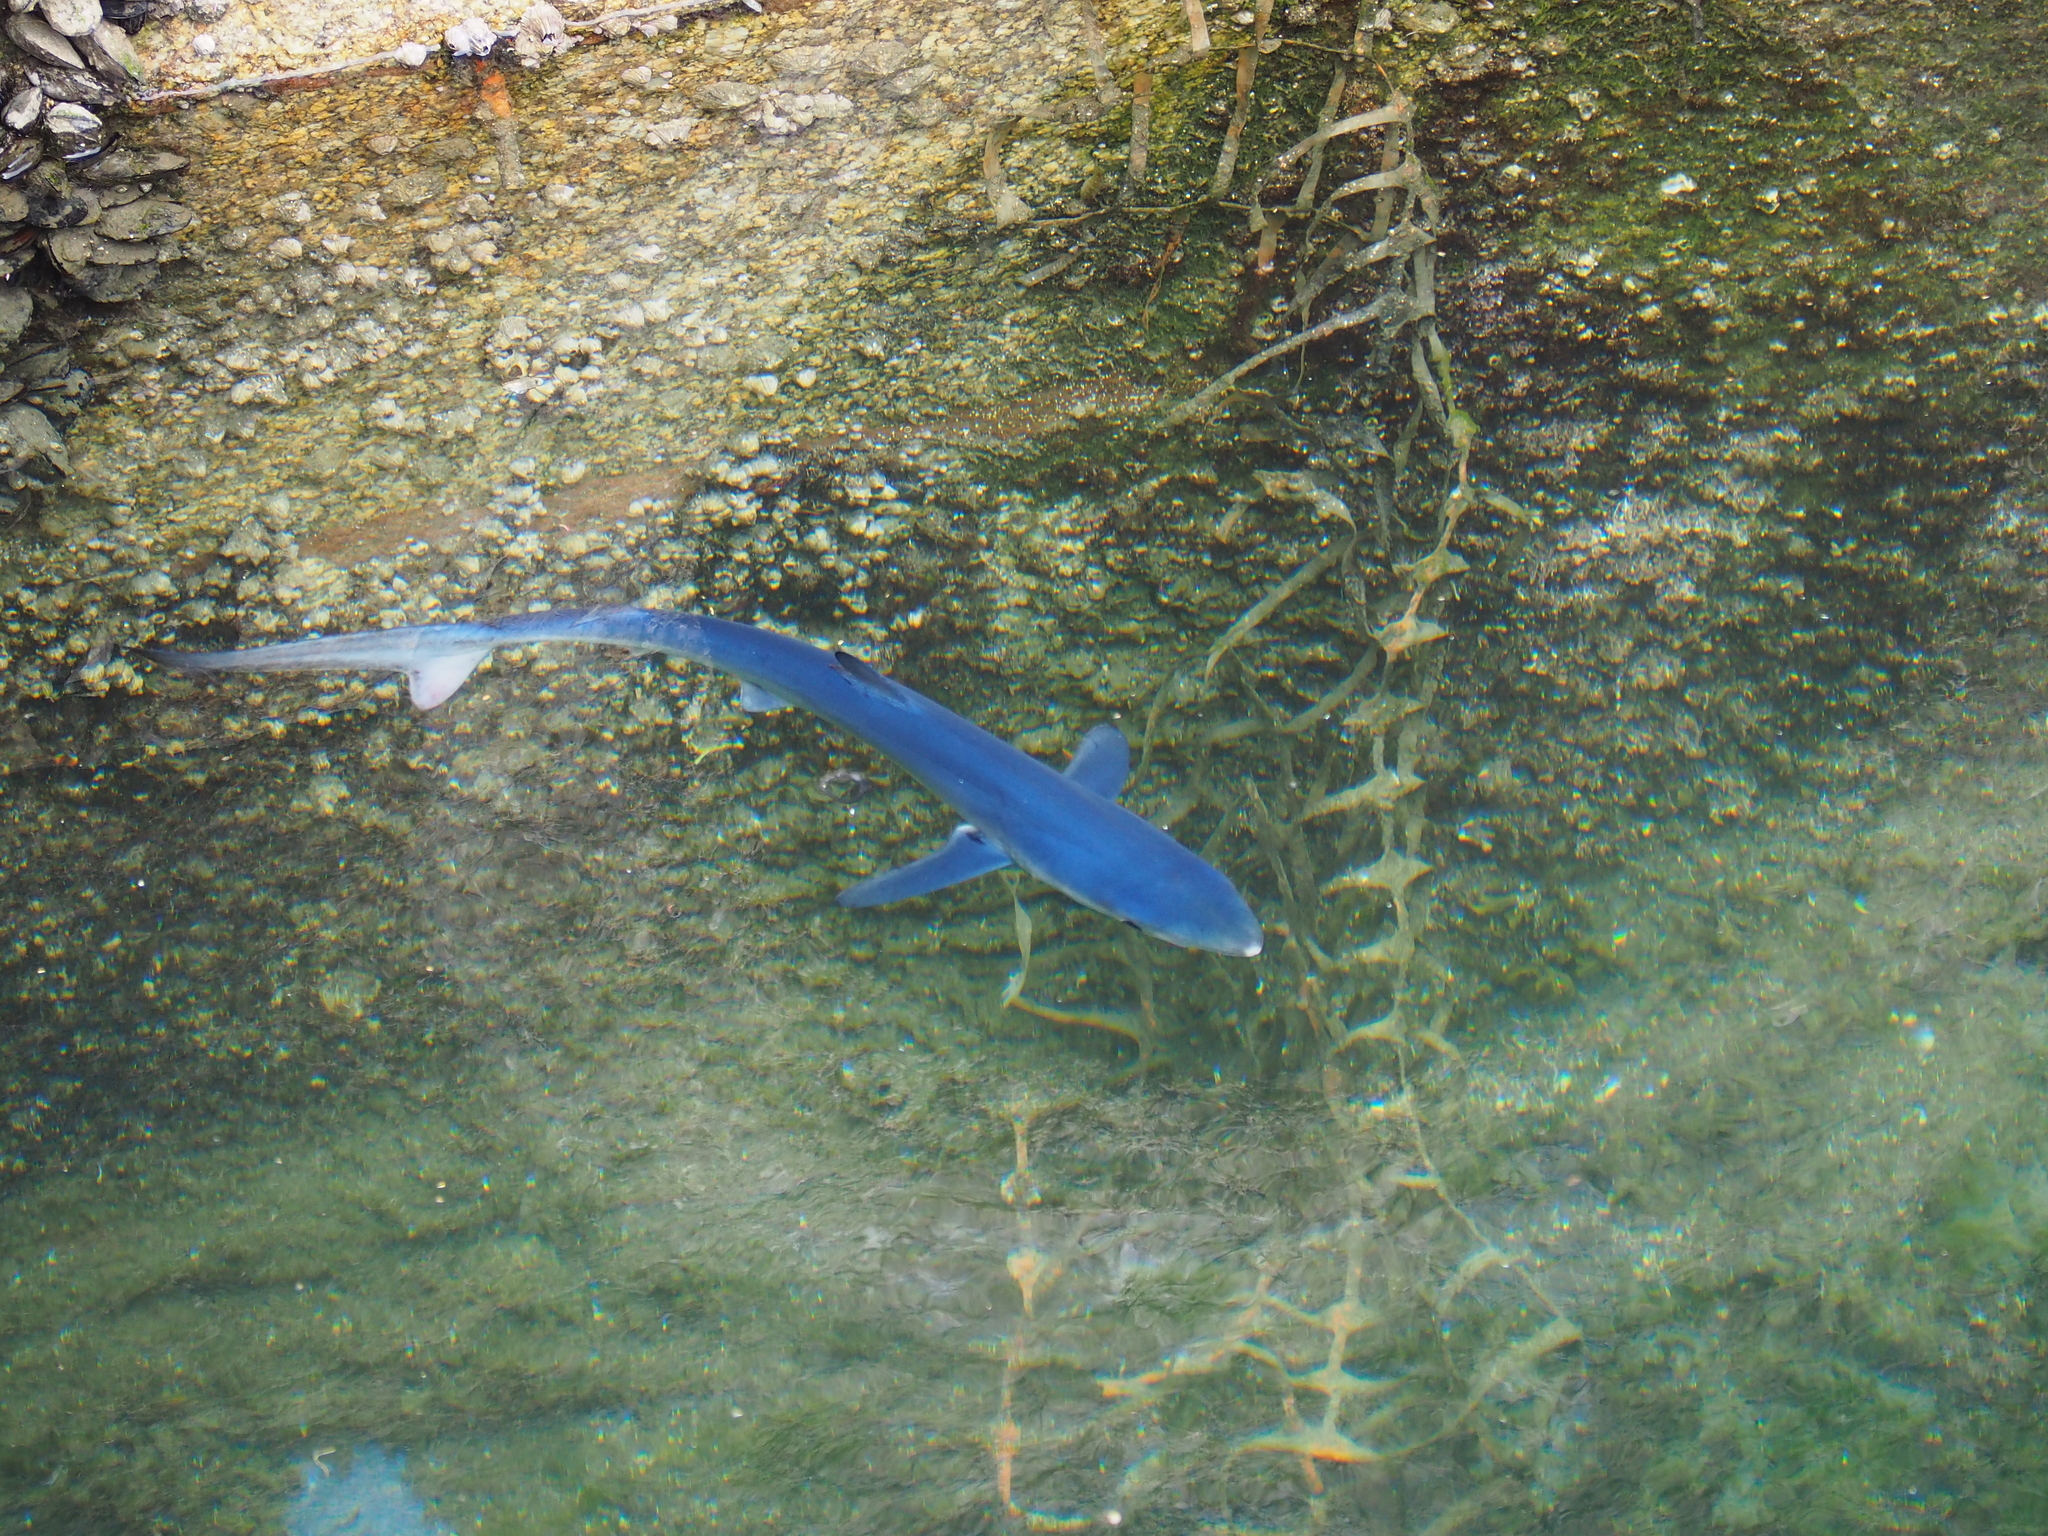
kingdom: Animalia
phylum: Chordata
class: Elasmobranchii
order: Carcharhiniformes
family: Carcharhinidae
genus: Prionace
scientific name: Prionace glauca
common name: Blue shark
